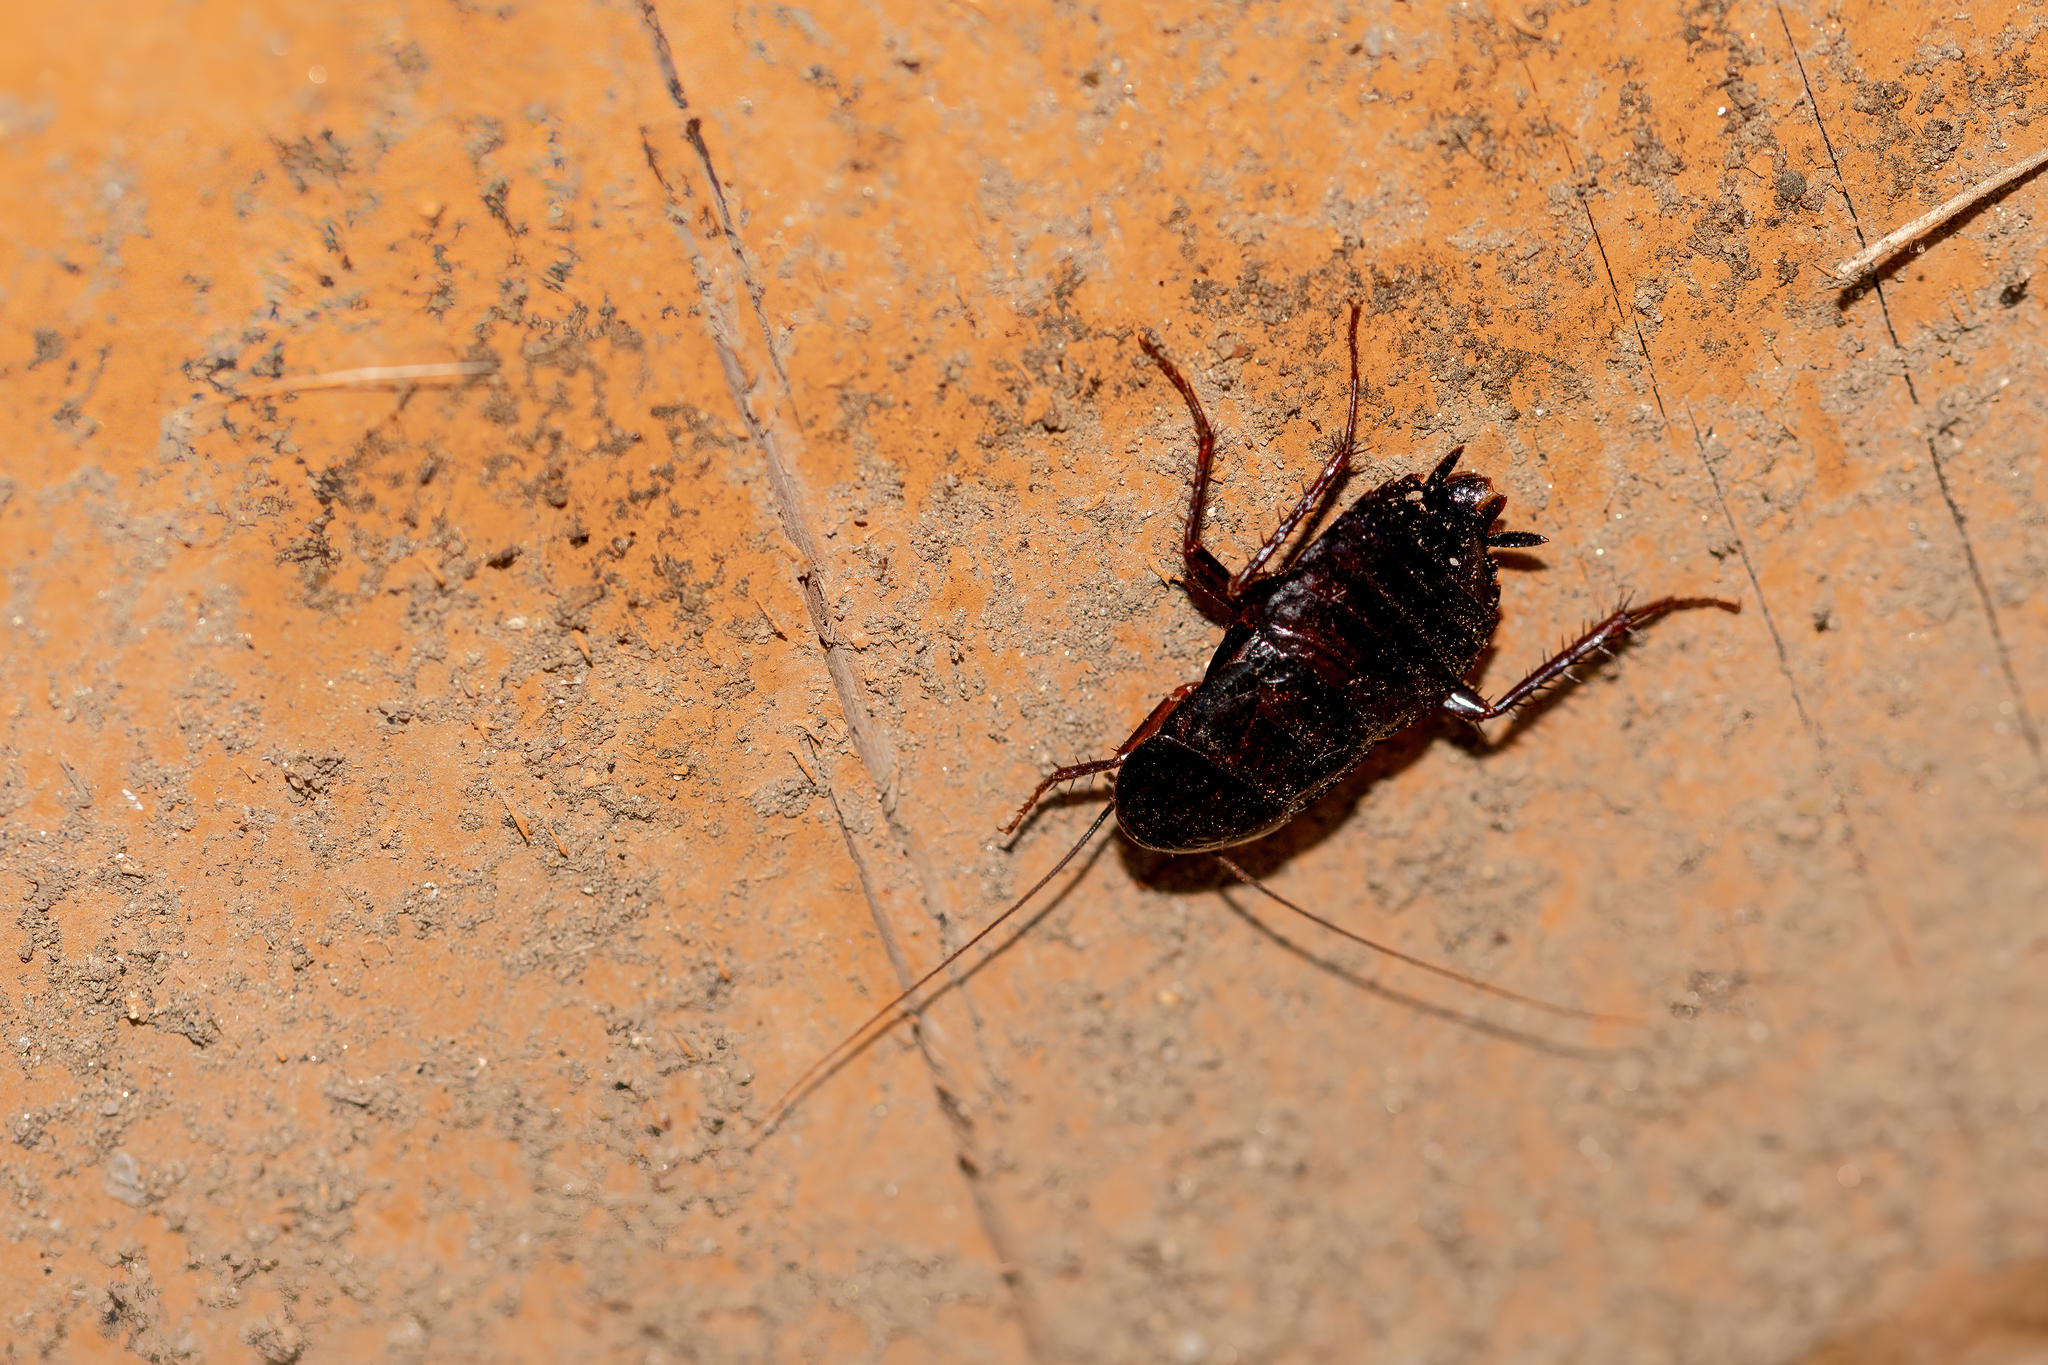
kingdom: Animalia
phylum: Arthropoda
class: Insecta
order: Blattodea
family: Blattidae
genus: Blatta
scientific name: Blatta orientalis
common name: Oriental cockroach
